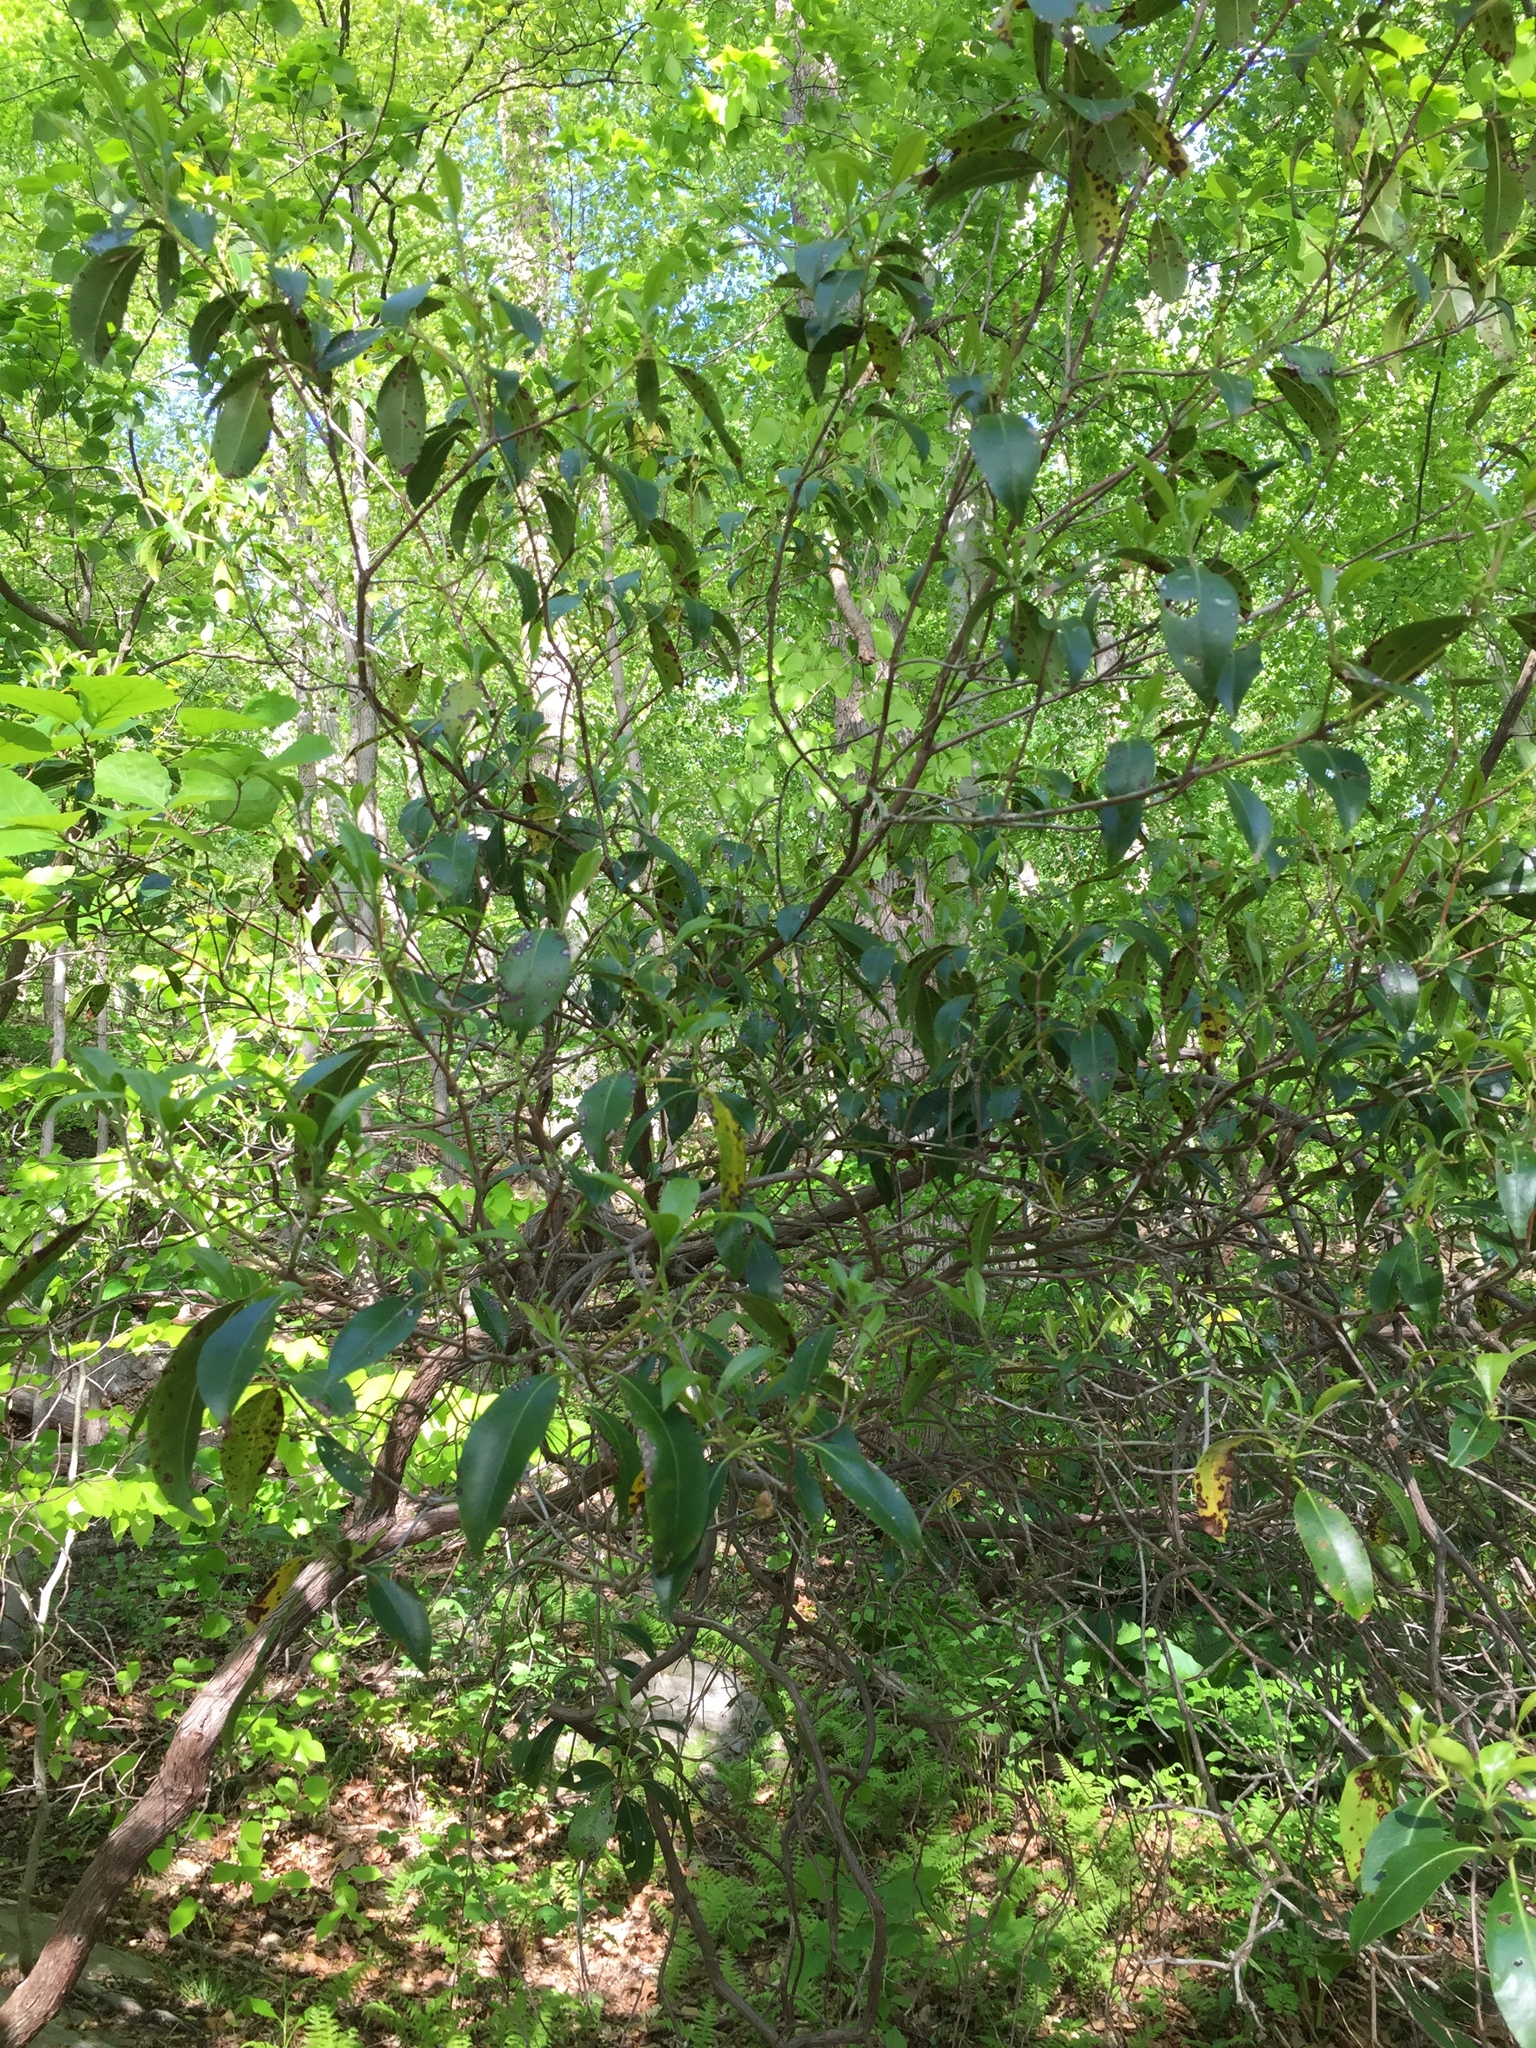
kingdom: Plantae
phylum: Tracheophyta
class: Magnoliopsida
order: Ericales
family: Ericaceae
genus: Kalmia
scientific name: Kalmia latifolia
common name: Mountain-laurel
